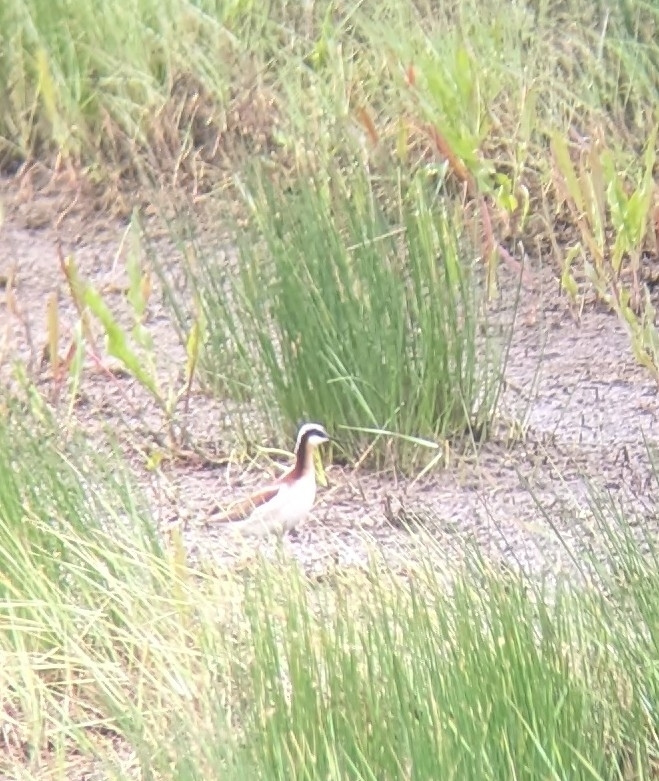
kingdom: Animalia
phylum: Chordata
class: Aves
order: Charadriiformes
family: Scolopacidae
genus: Phalaropus
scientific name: Phalaropus tricolor
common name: Wilson's phalarope
